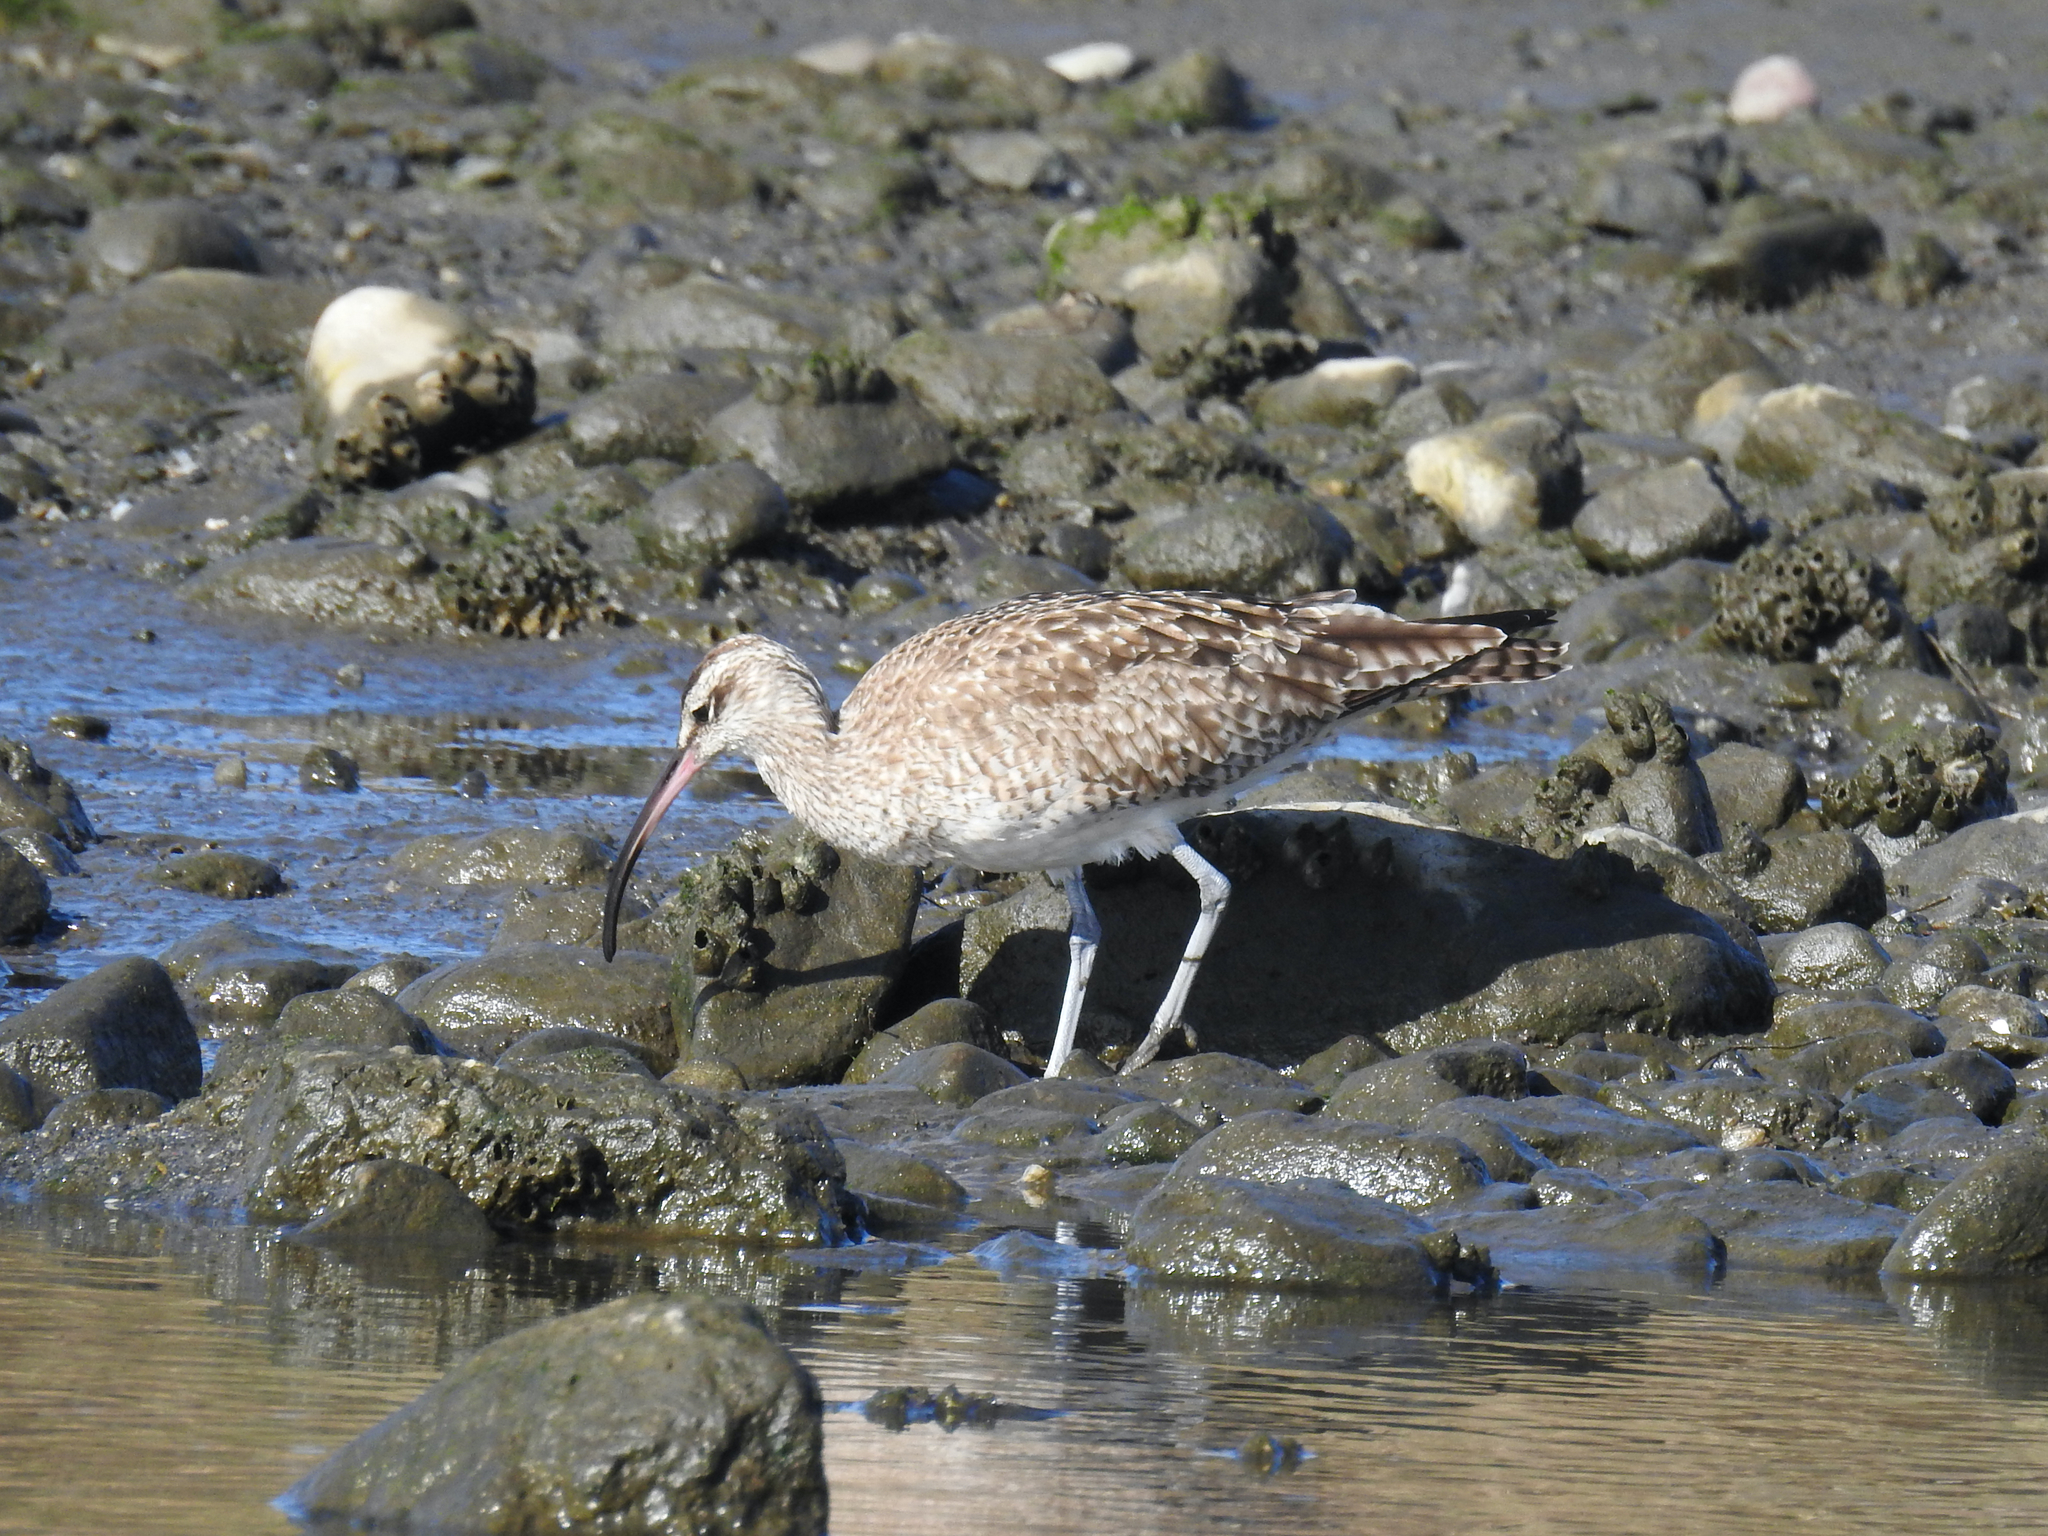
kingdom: Animalia
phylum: Chordata
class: Aves
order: Charadriiformes
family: Scolopacidae
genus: Numenius
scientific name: Numenius phaeopus
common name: Whimbrel
